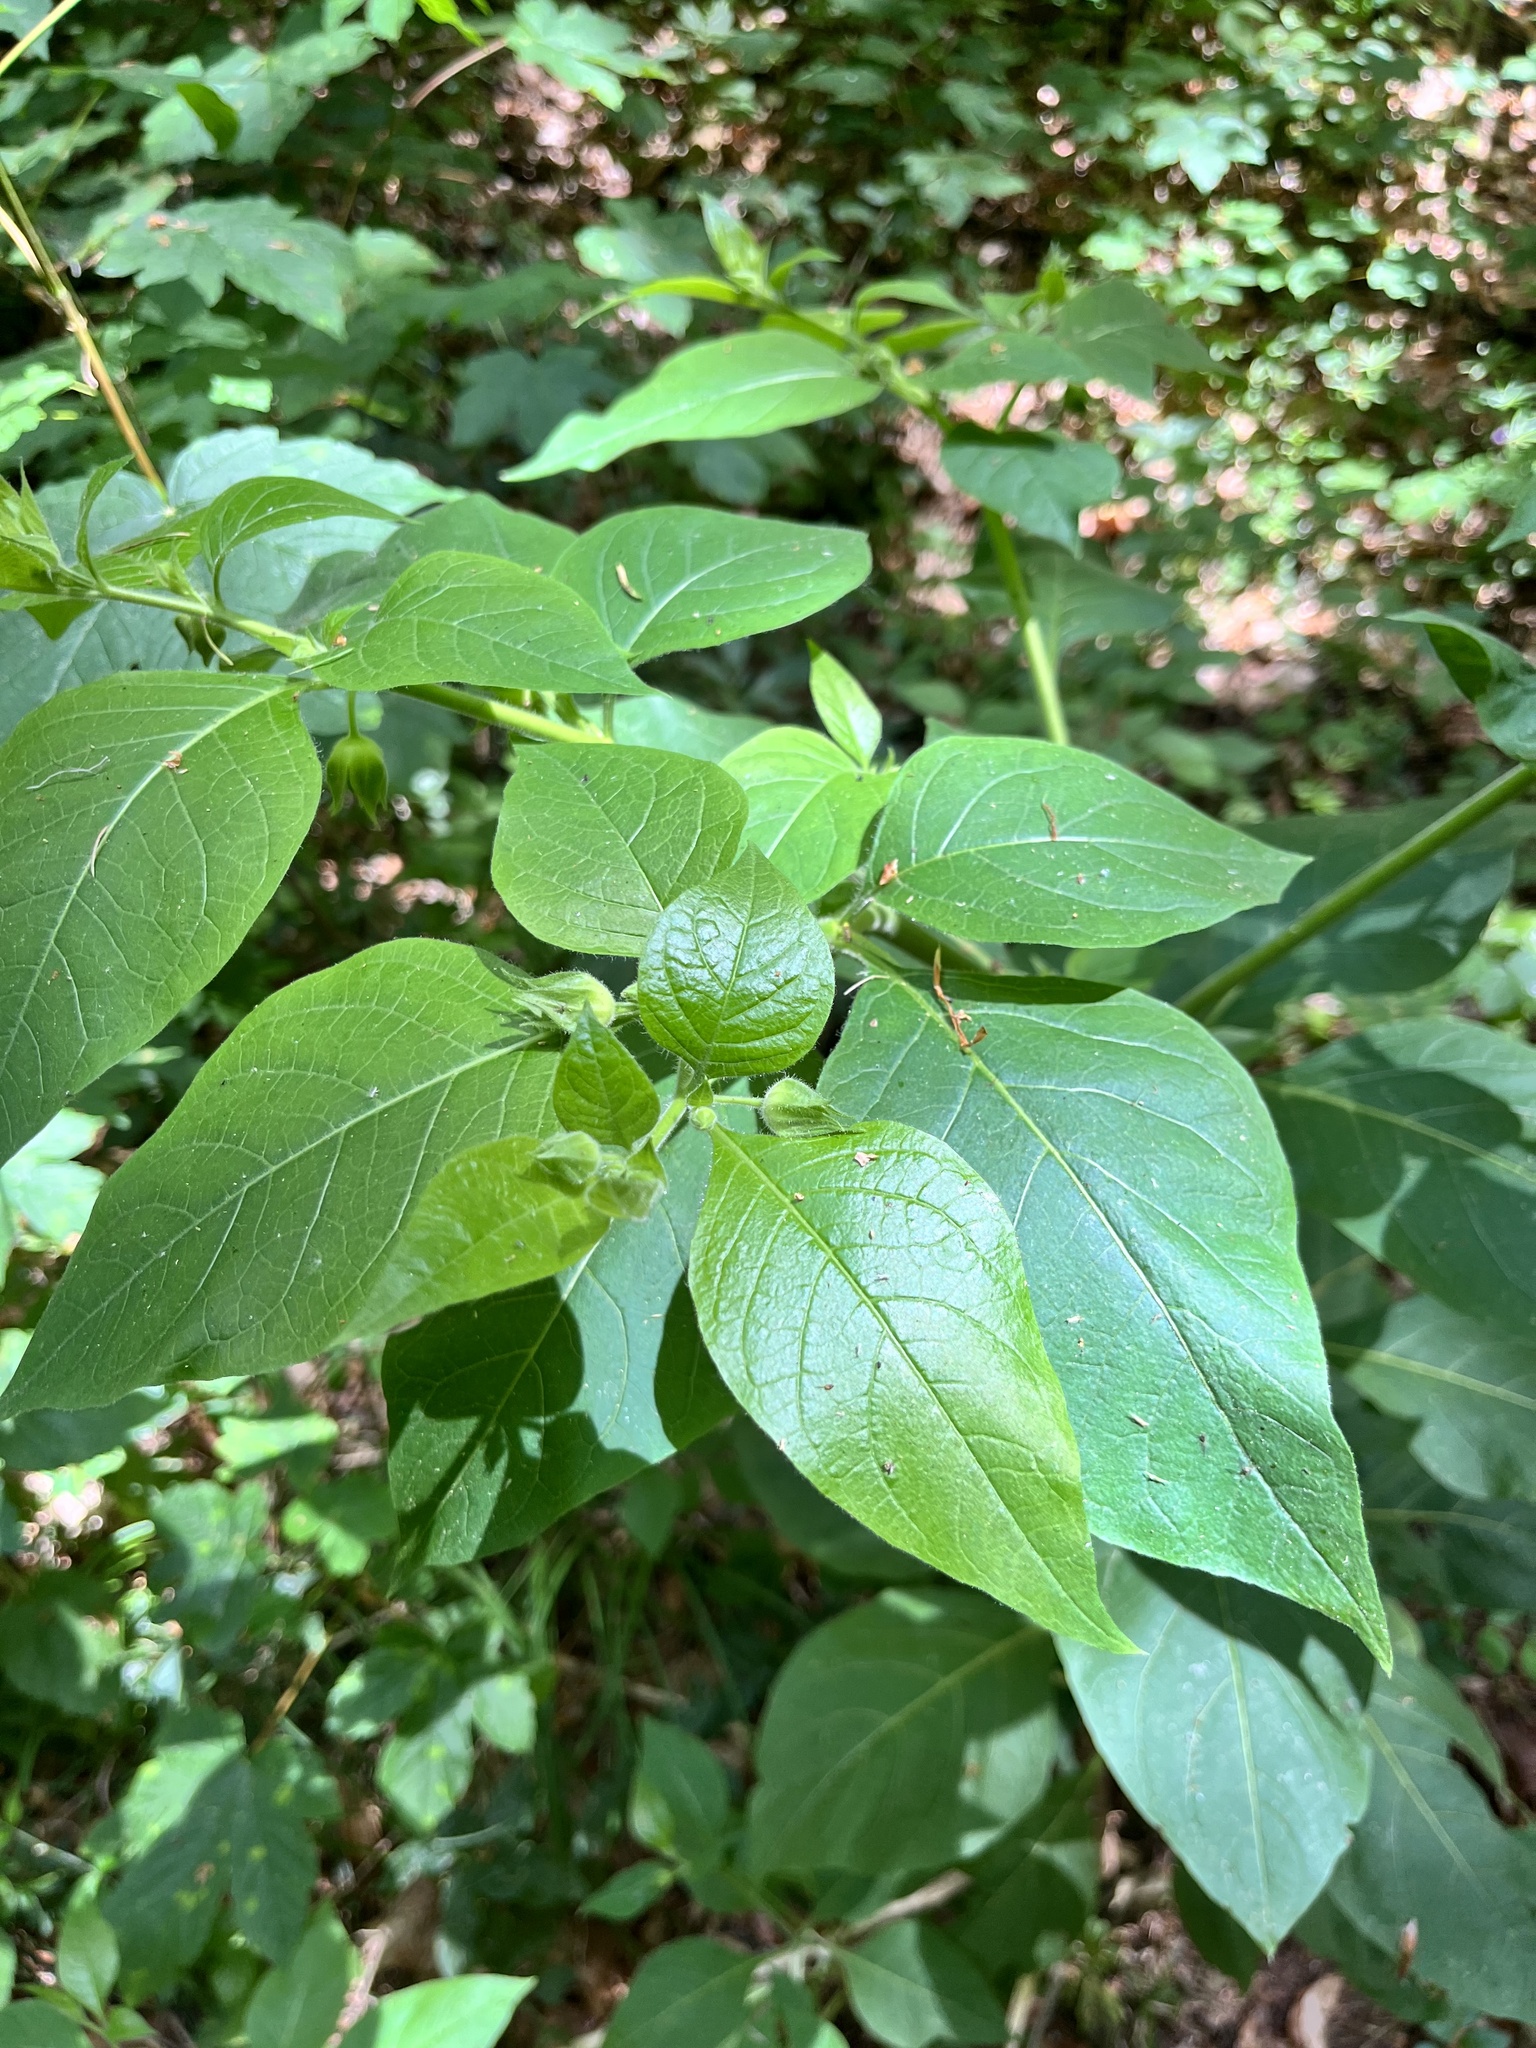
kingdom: Plantae
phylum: Tracheophyta
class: Magnoliopsida
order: Solanales
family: Solanaceae
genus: Atropa
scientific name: Atropa belladonna
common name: Deadly nightshade
